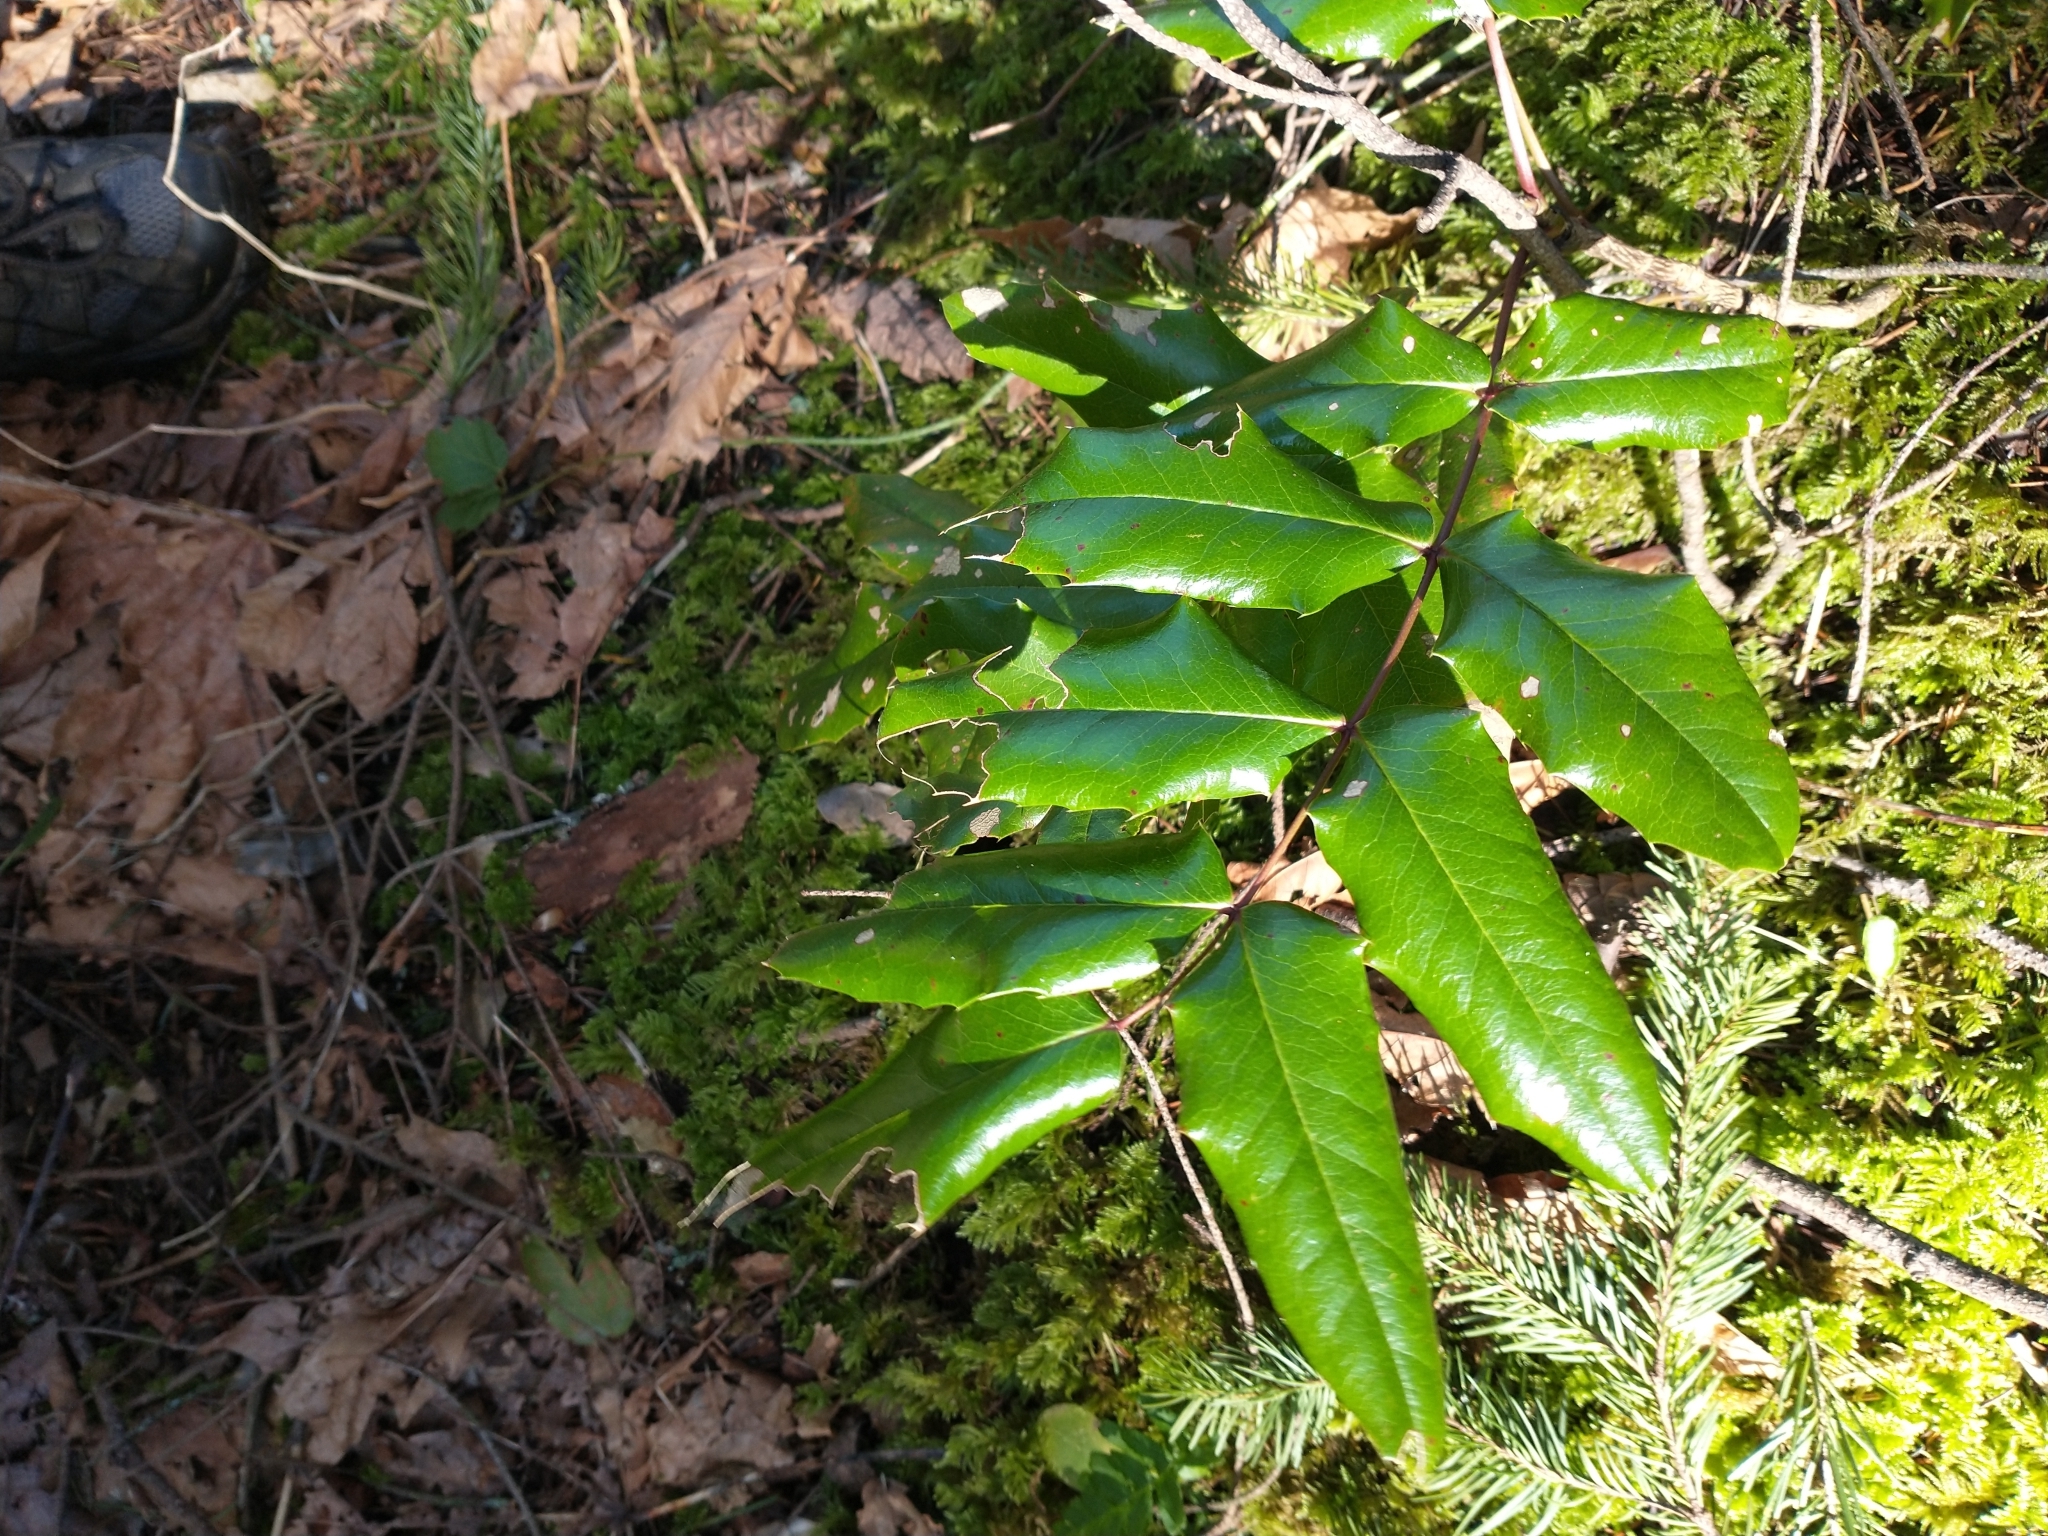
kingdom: Plantae
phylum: Tracheophyta
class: Magnoliopsida
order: Ranunculales
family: Berberidaceae
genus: Mahonia
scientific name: Mahonia aquifolium
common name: Oregon-grape
